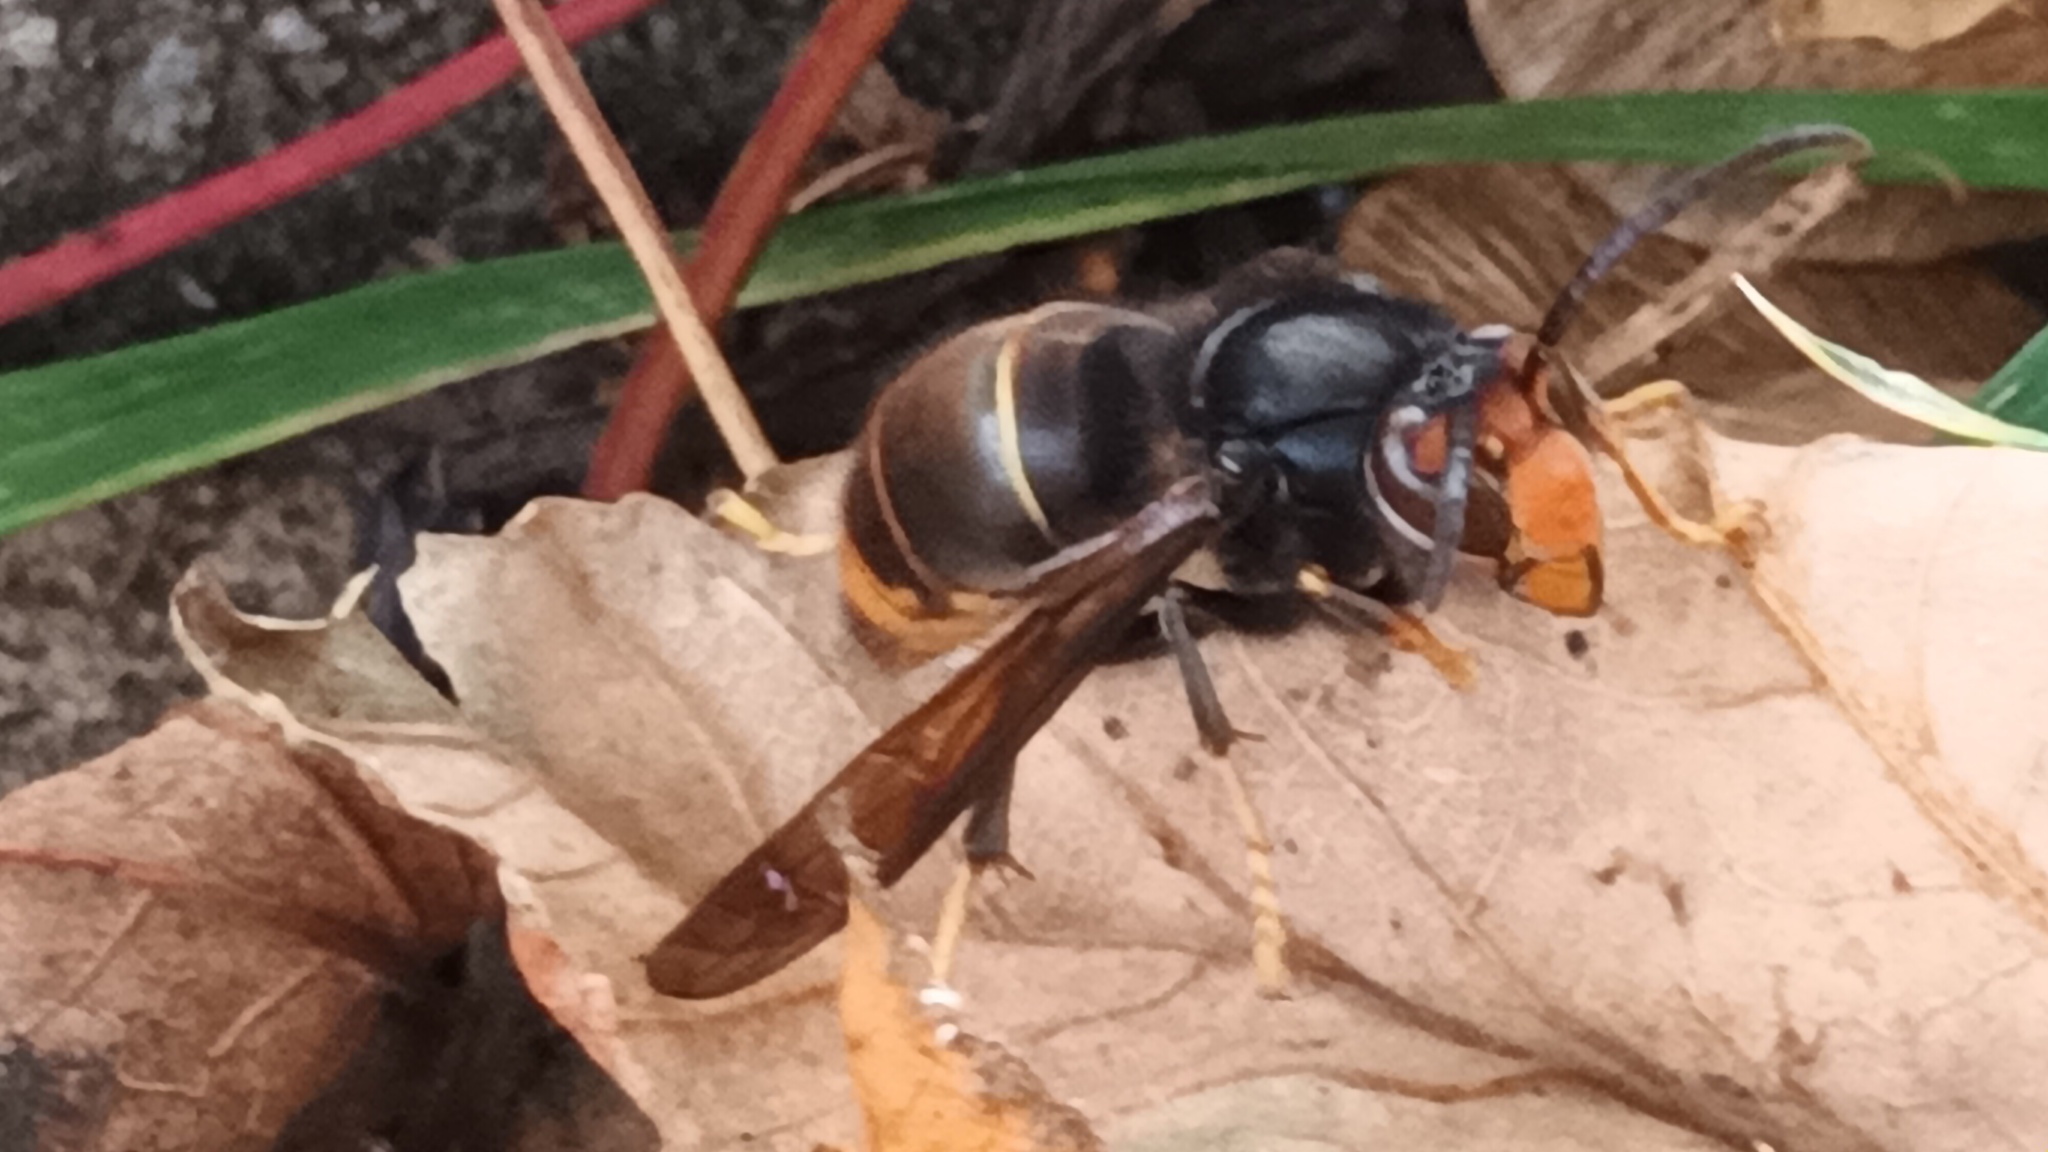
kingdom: Animalia
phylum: Arthropoda
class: Insecta
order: Hymenoptera
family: Vespidae
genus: Vespa
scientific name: Vespa velutina
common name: Asian hornet
